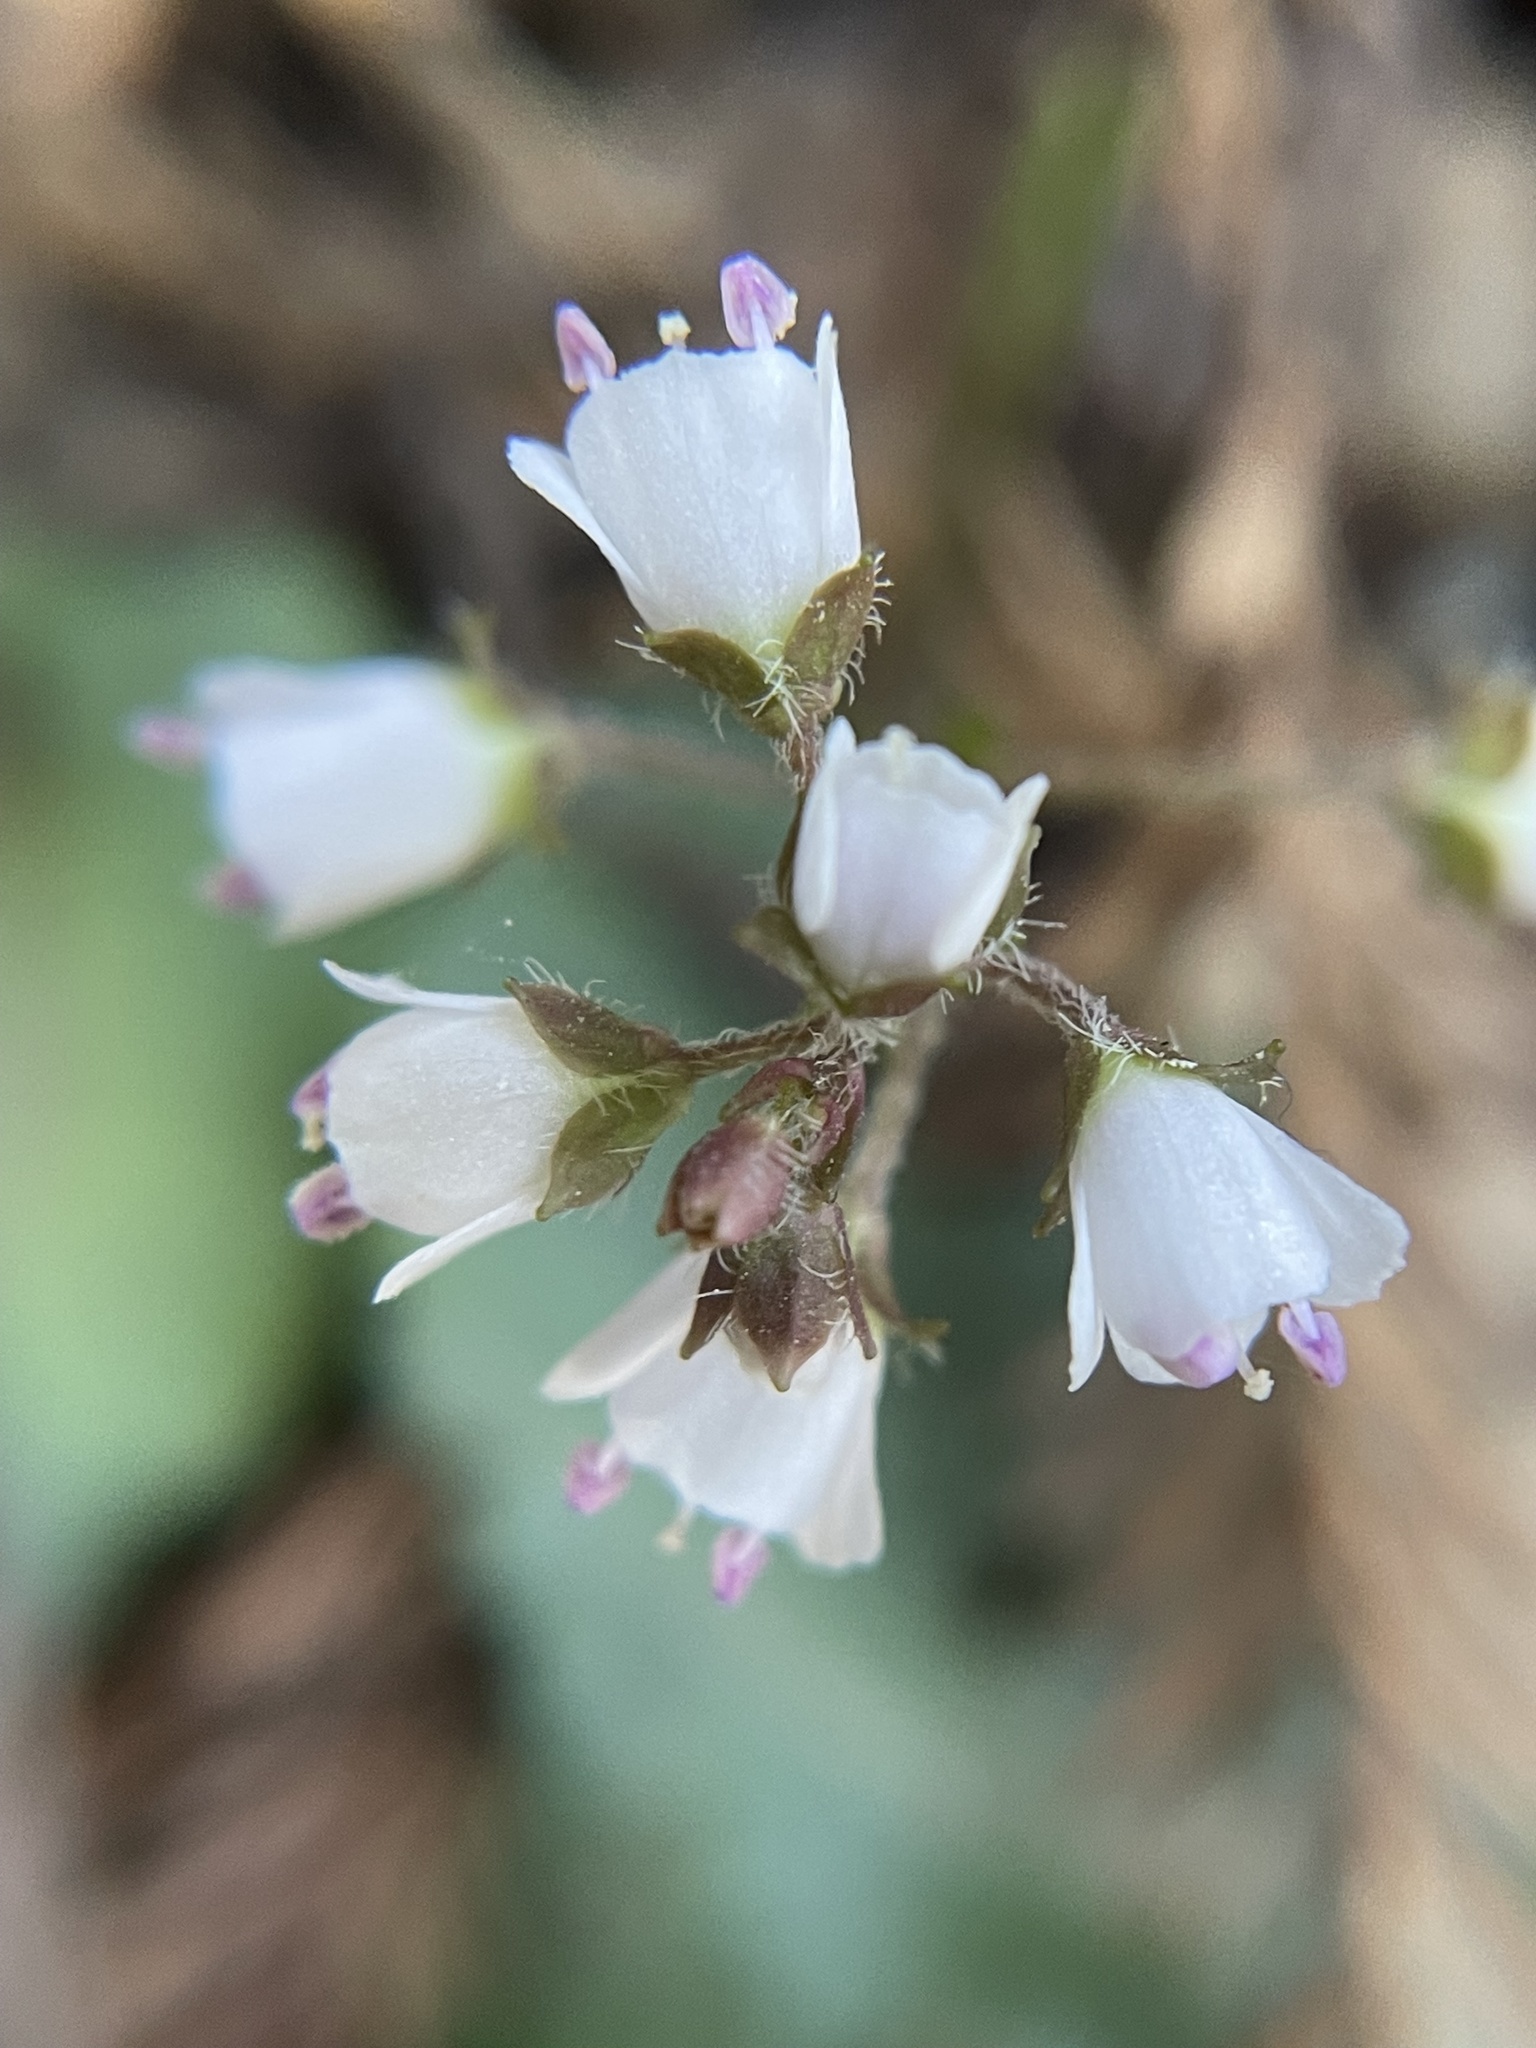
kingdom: Plantae
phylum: Tracheophyta
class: Magnoliopsida
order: Lamiales
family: Plantaginaceae
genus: Synthyris
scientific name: Synthyris cordata
